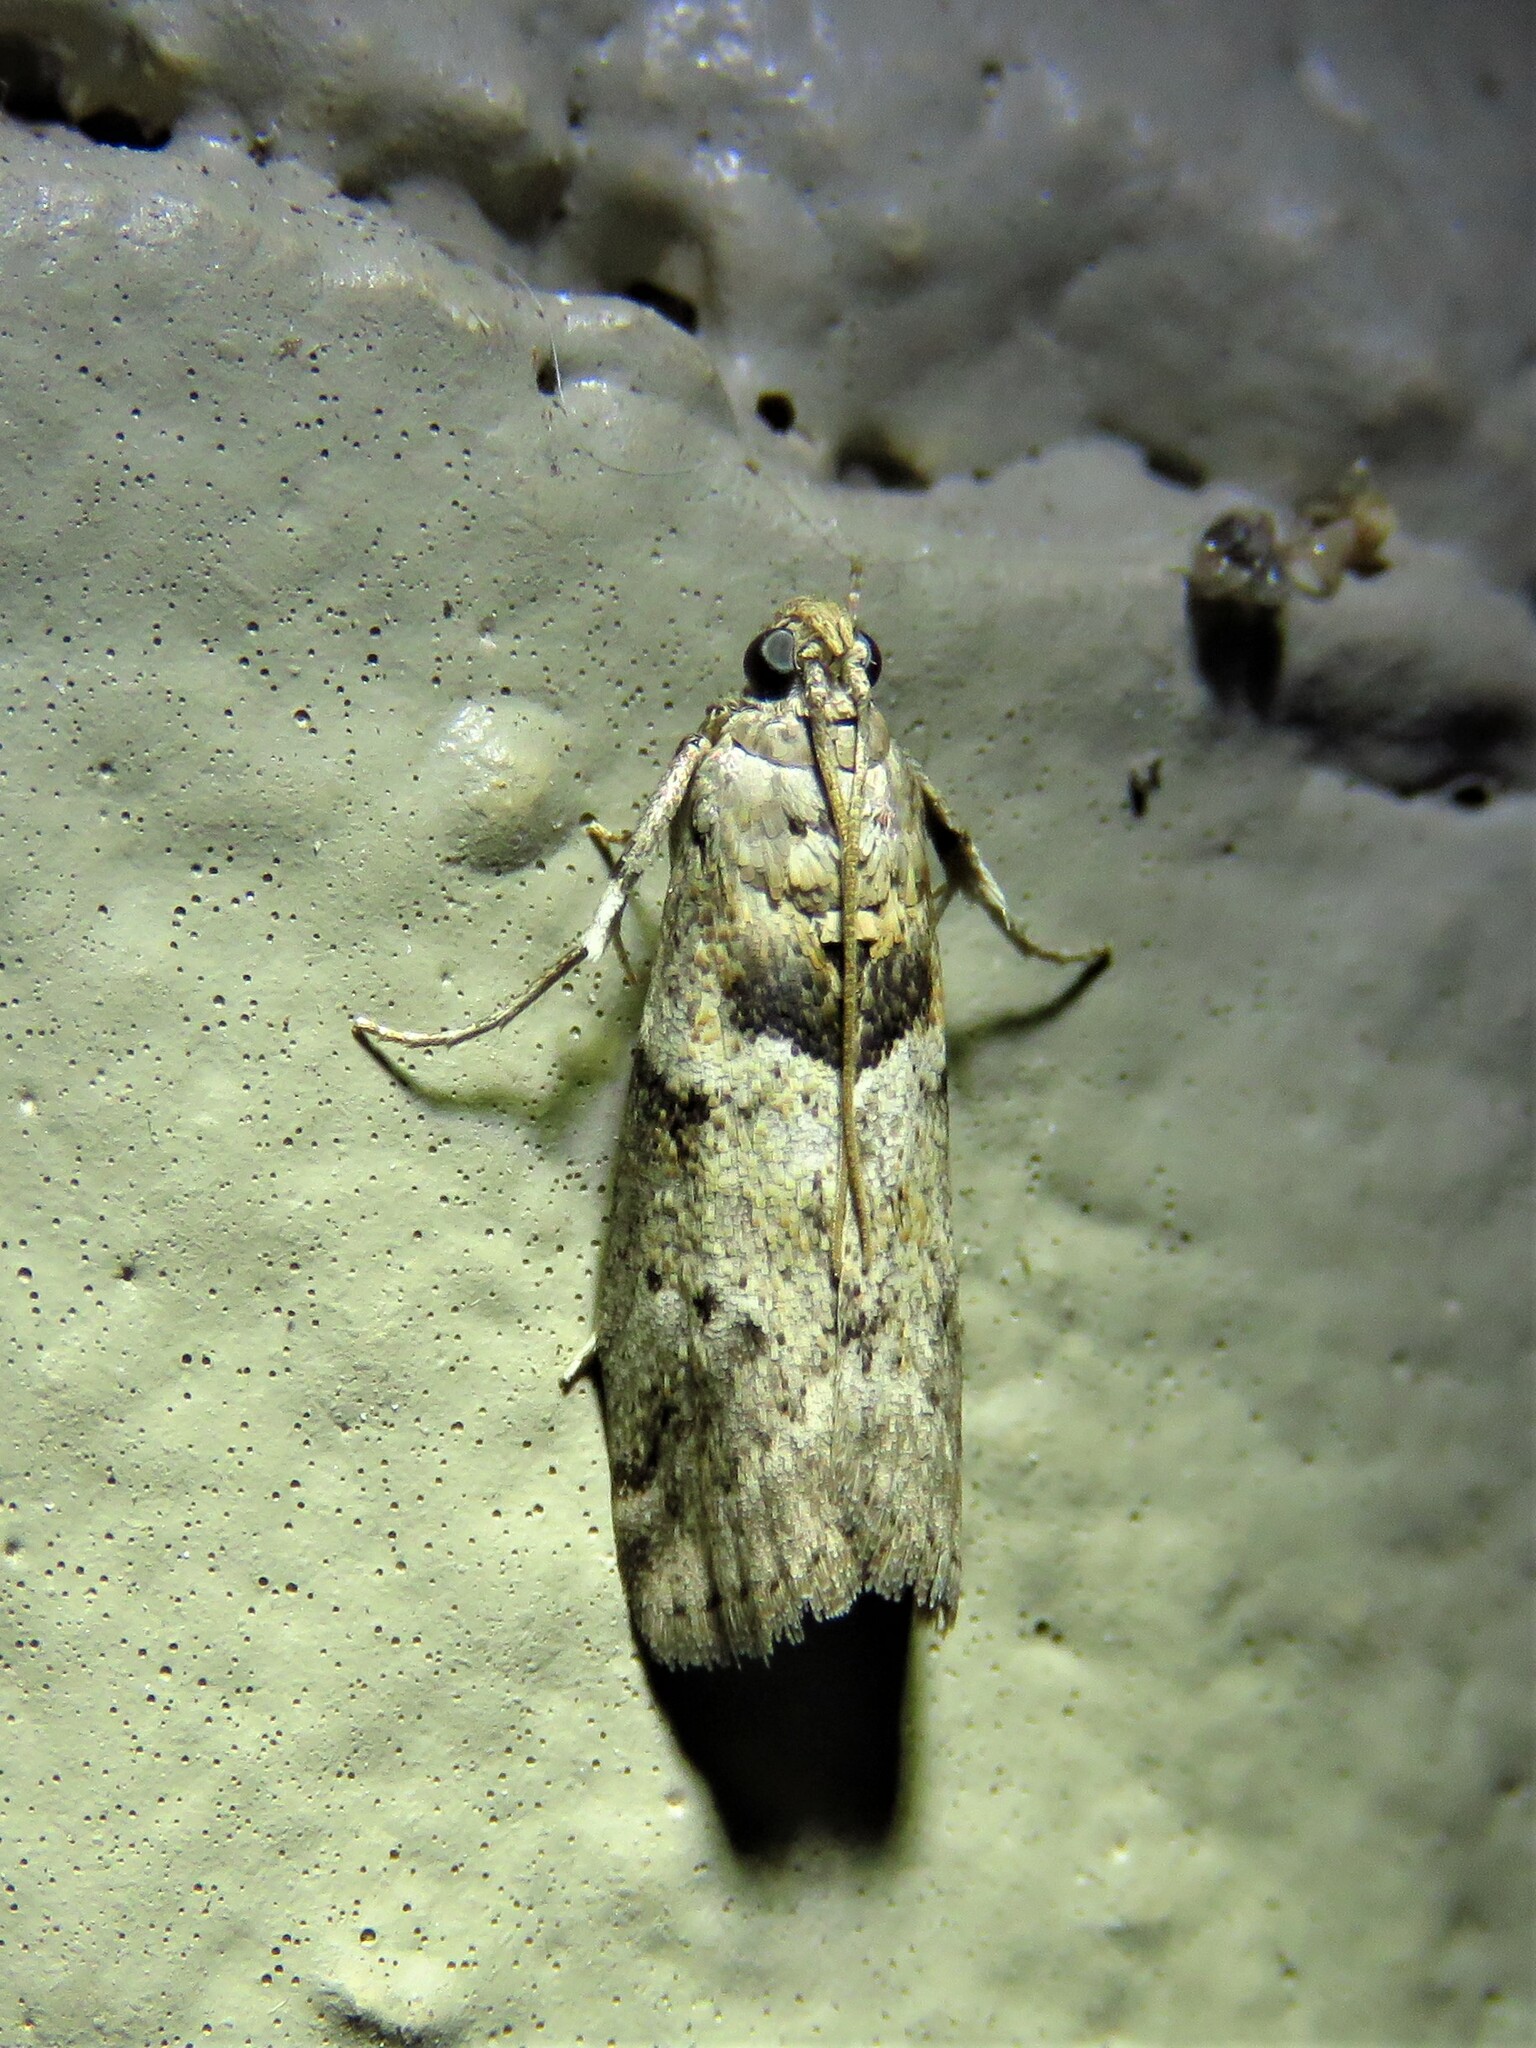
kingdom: Animalia
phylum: Arthropoda
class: Insecta
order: Lepidoptera
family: Pyralidae
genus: Salebriaria
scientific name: Salebriaria annulosella
